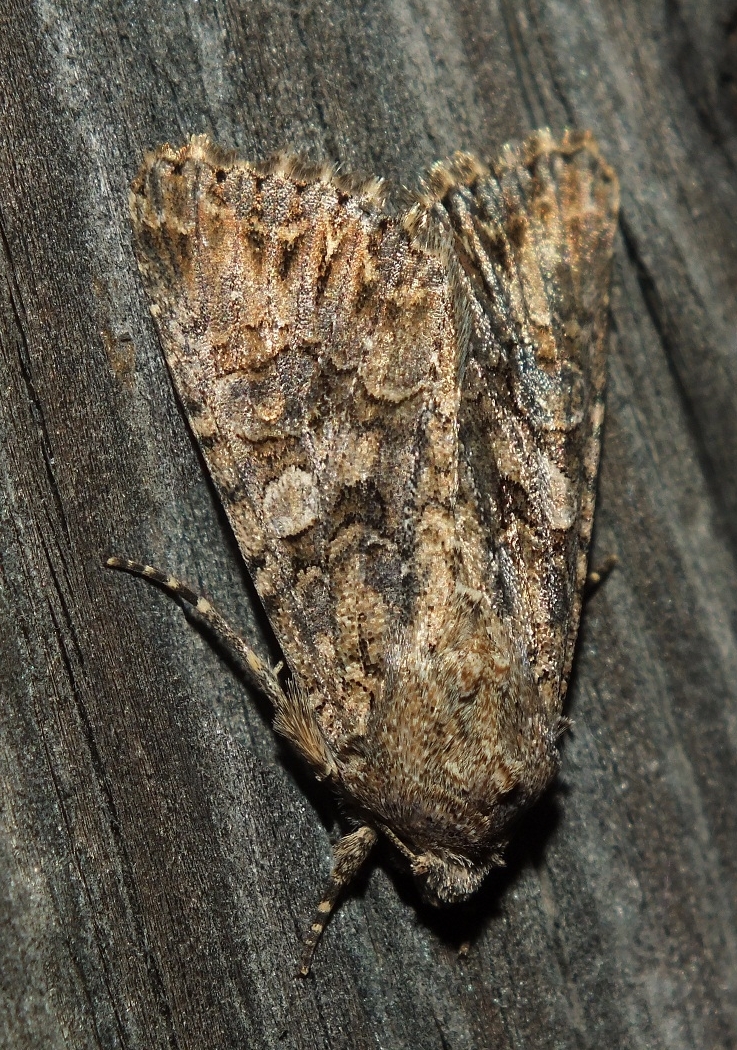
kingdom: Animalia
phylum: Arthropoda
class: Insecta
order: Lepidoptera
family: Noctuidae
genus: Anarta
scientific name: Anarta trifolii
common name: Clover cutworm moth
